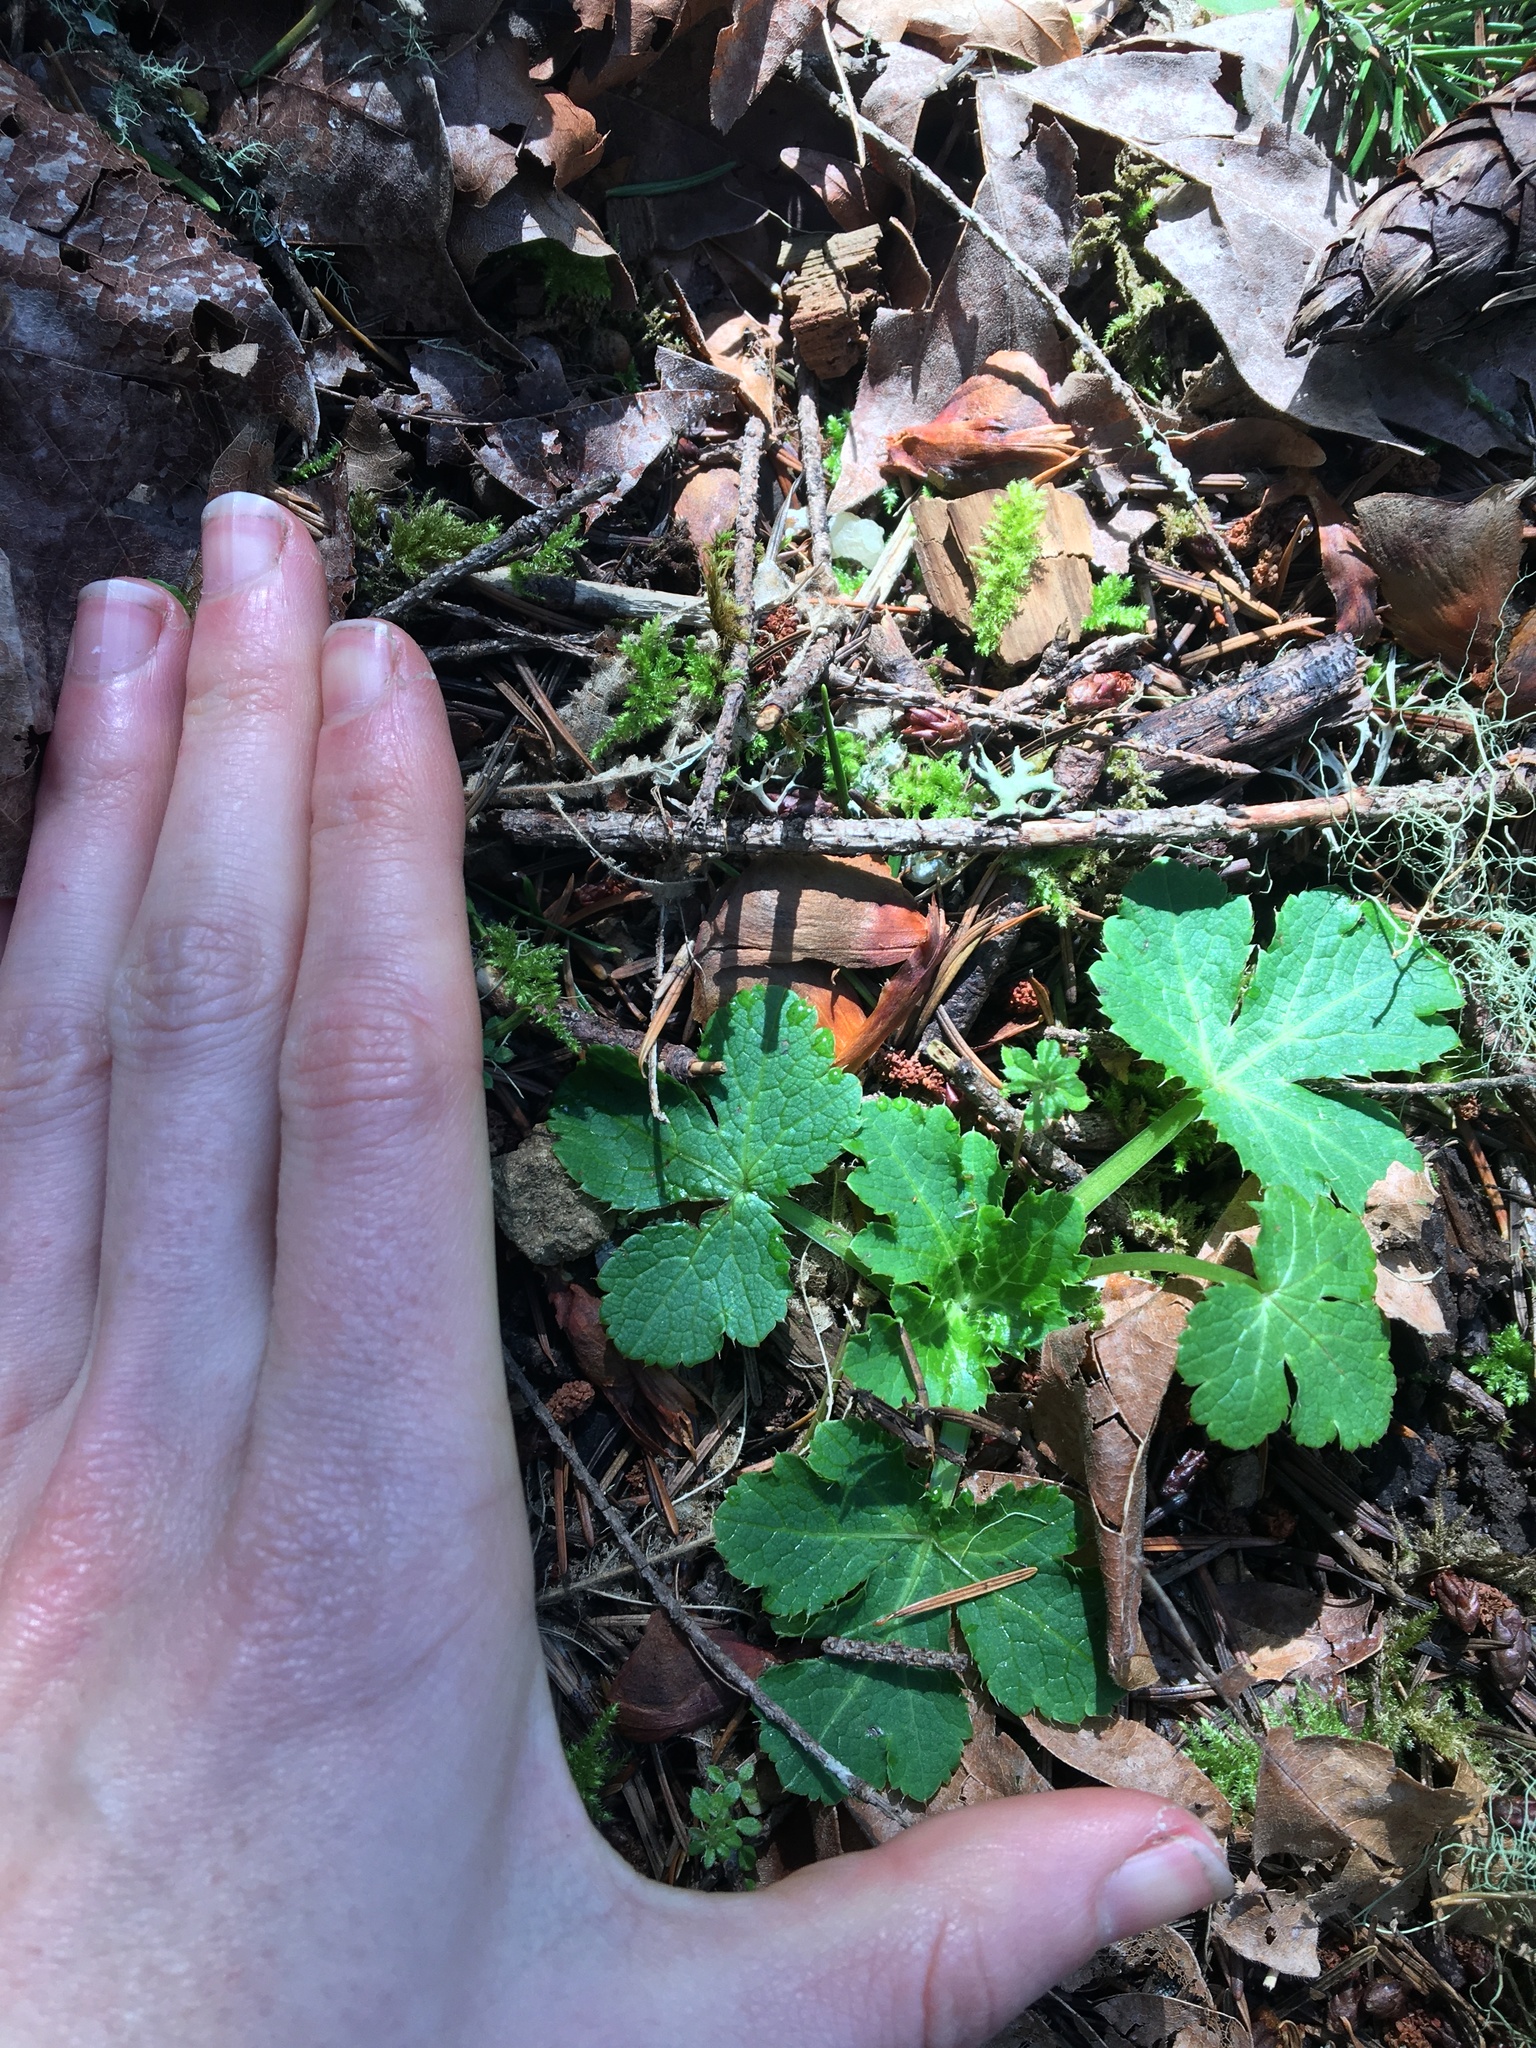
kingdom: Plantae
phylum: Tracheophyta
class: Magnoliopsida
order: Apiales
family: Apiaceae
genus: Sanicula
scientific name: Sanicula crassicaulis
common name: Western snakeroot
